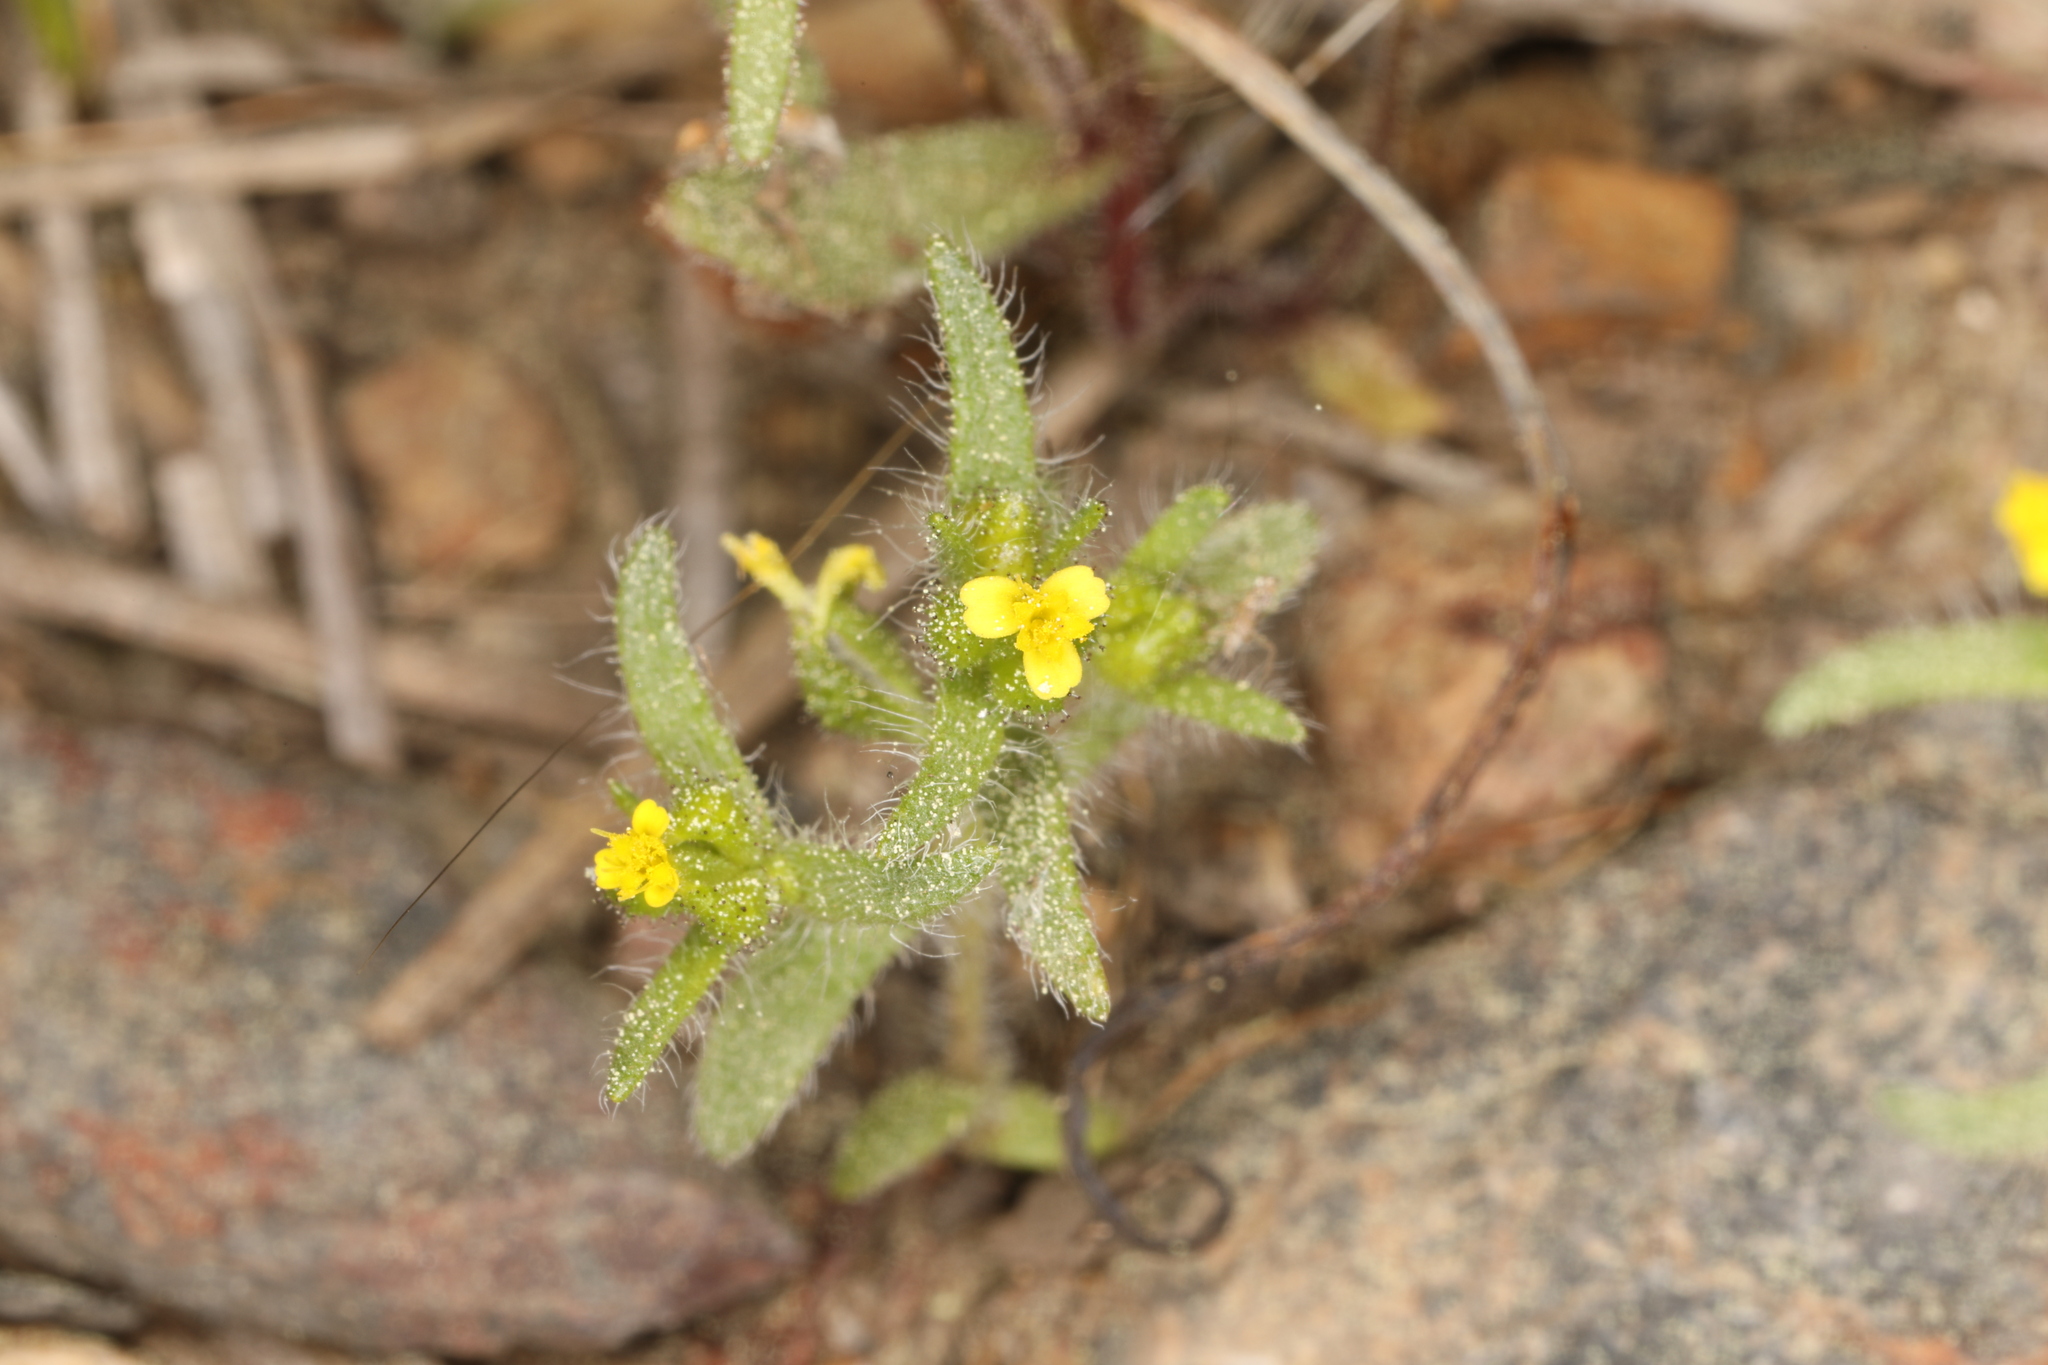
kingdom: Plantae
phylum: Tracheophyta
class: Magnoliopsida
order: Asterales
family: Asteraceae
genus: Hemizonella
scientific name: Hemizonella minima
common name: Opposite-leaved tarweed
